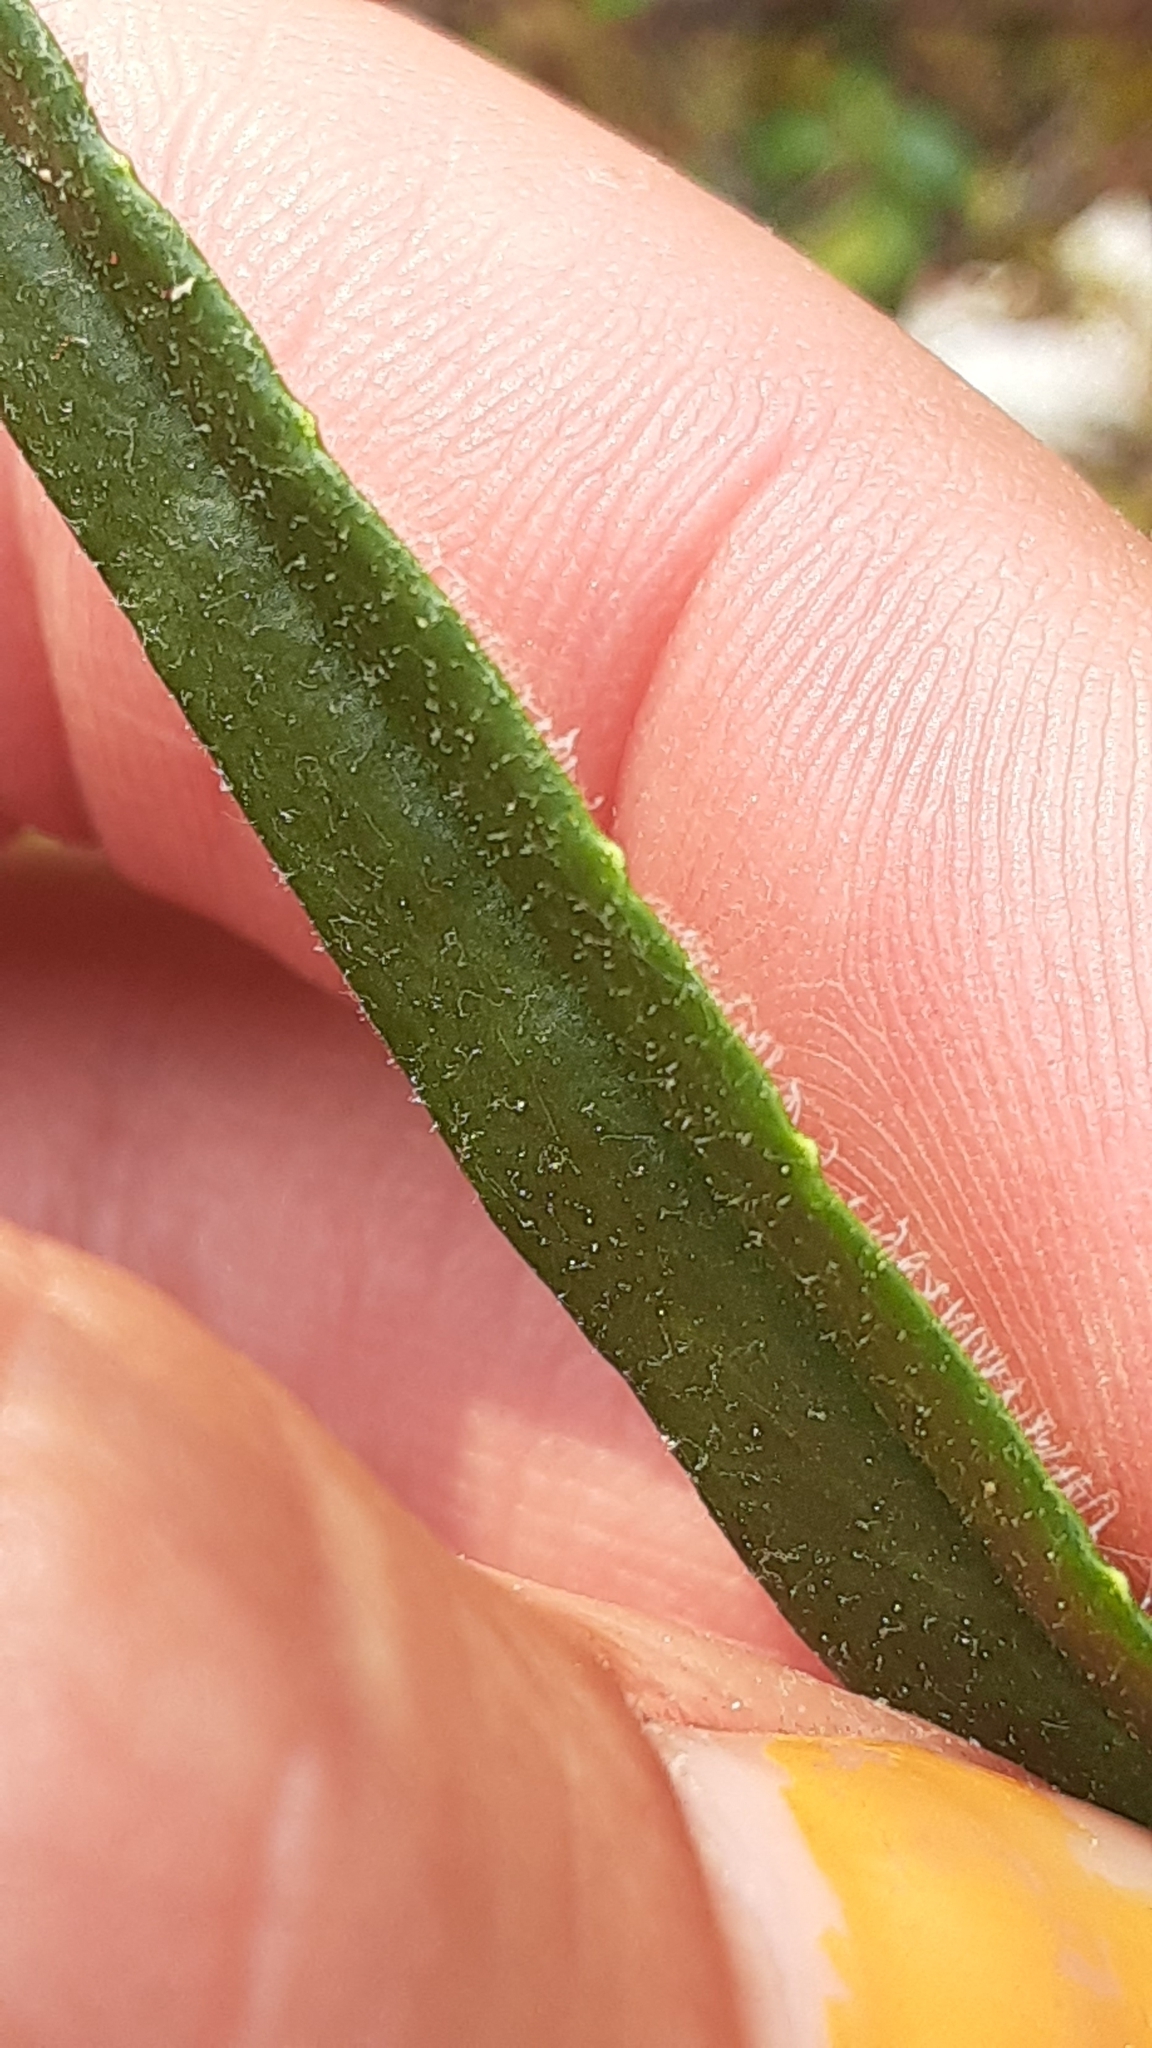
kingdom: Plantae
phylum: Tracheophyta
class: Magnoliopsida
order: Asterales
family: Asteraceae
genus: Saussurea
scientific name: Saussurea angustifolia
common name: Common saussurea
